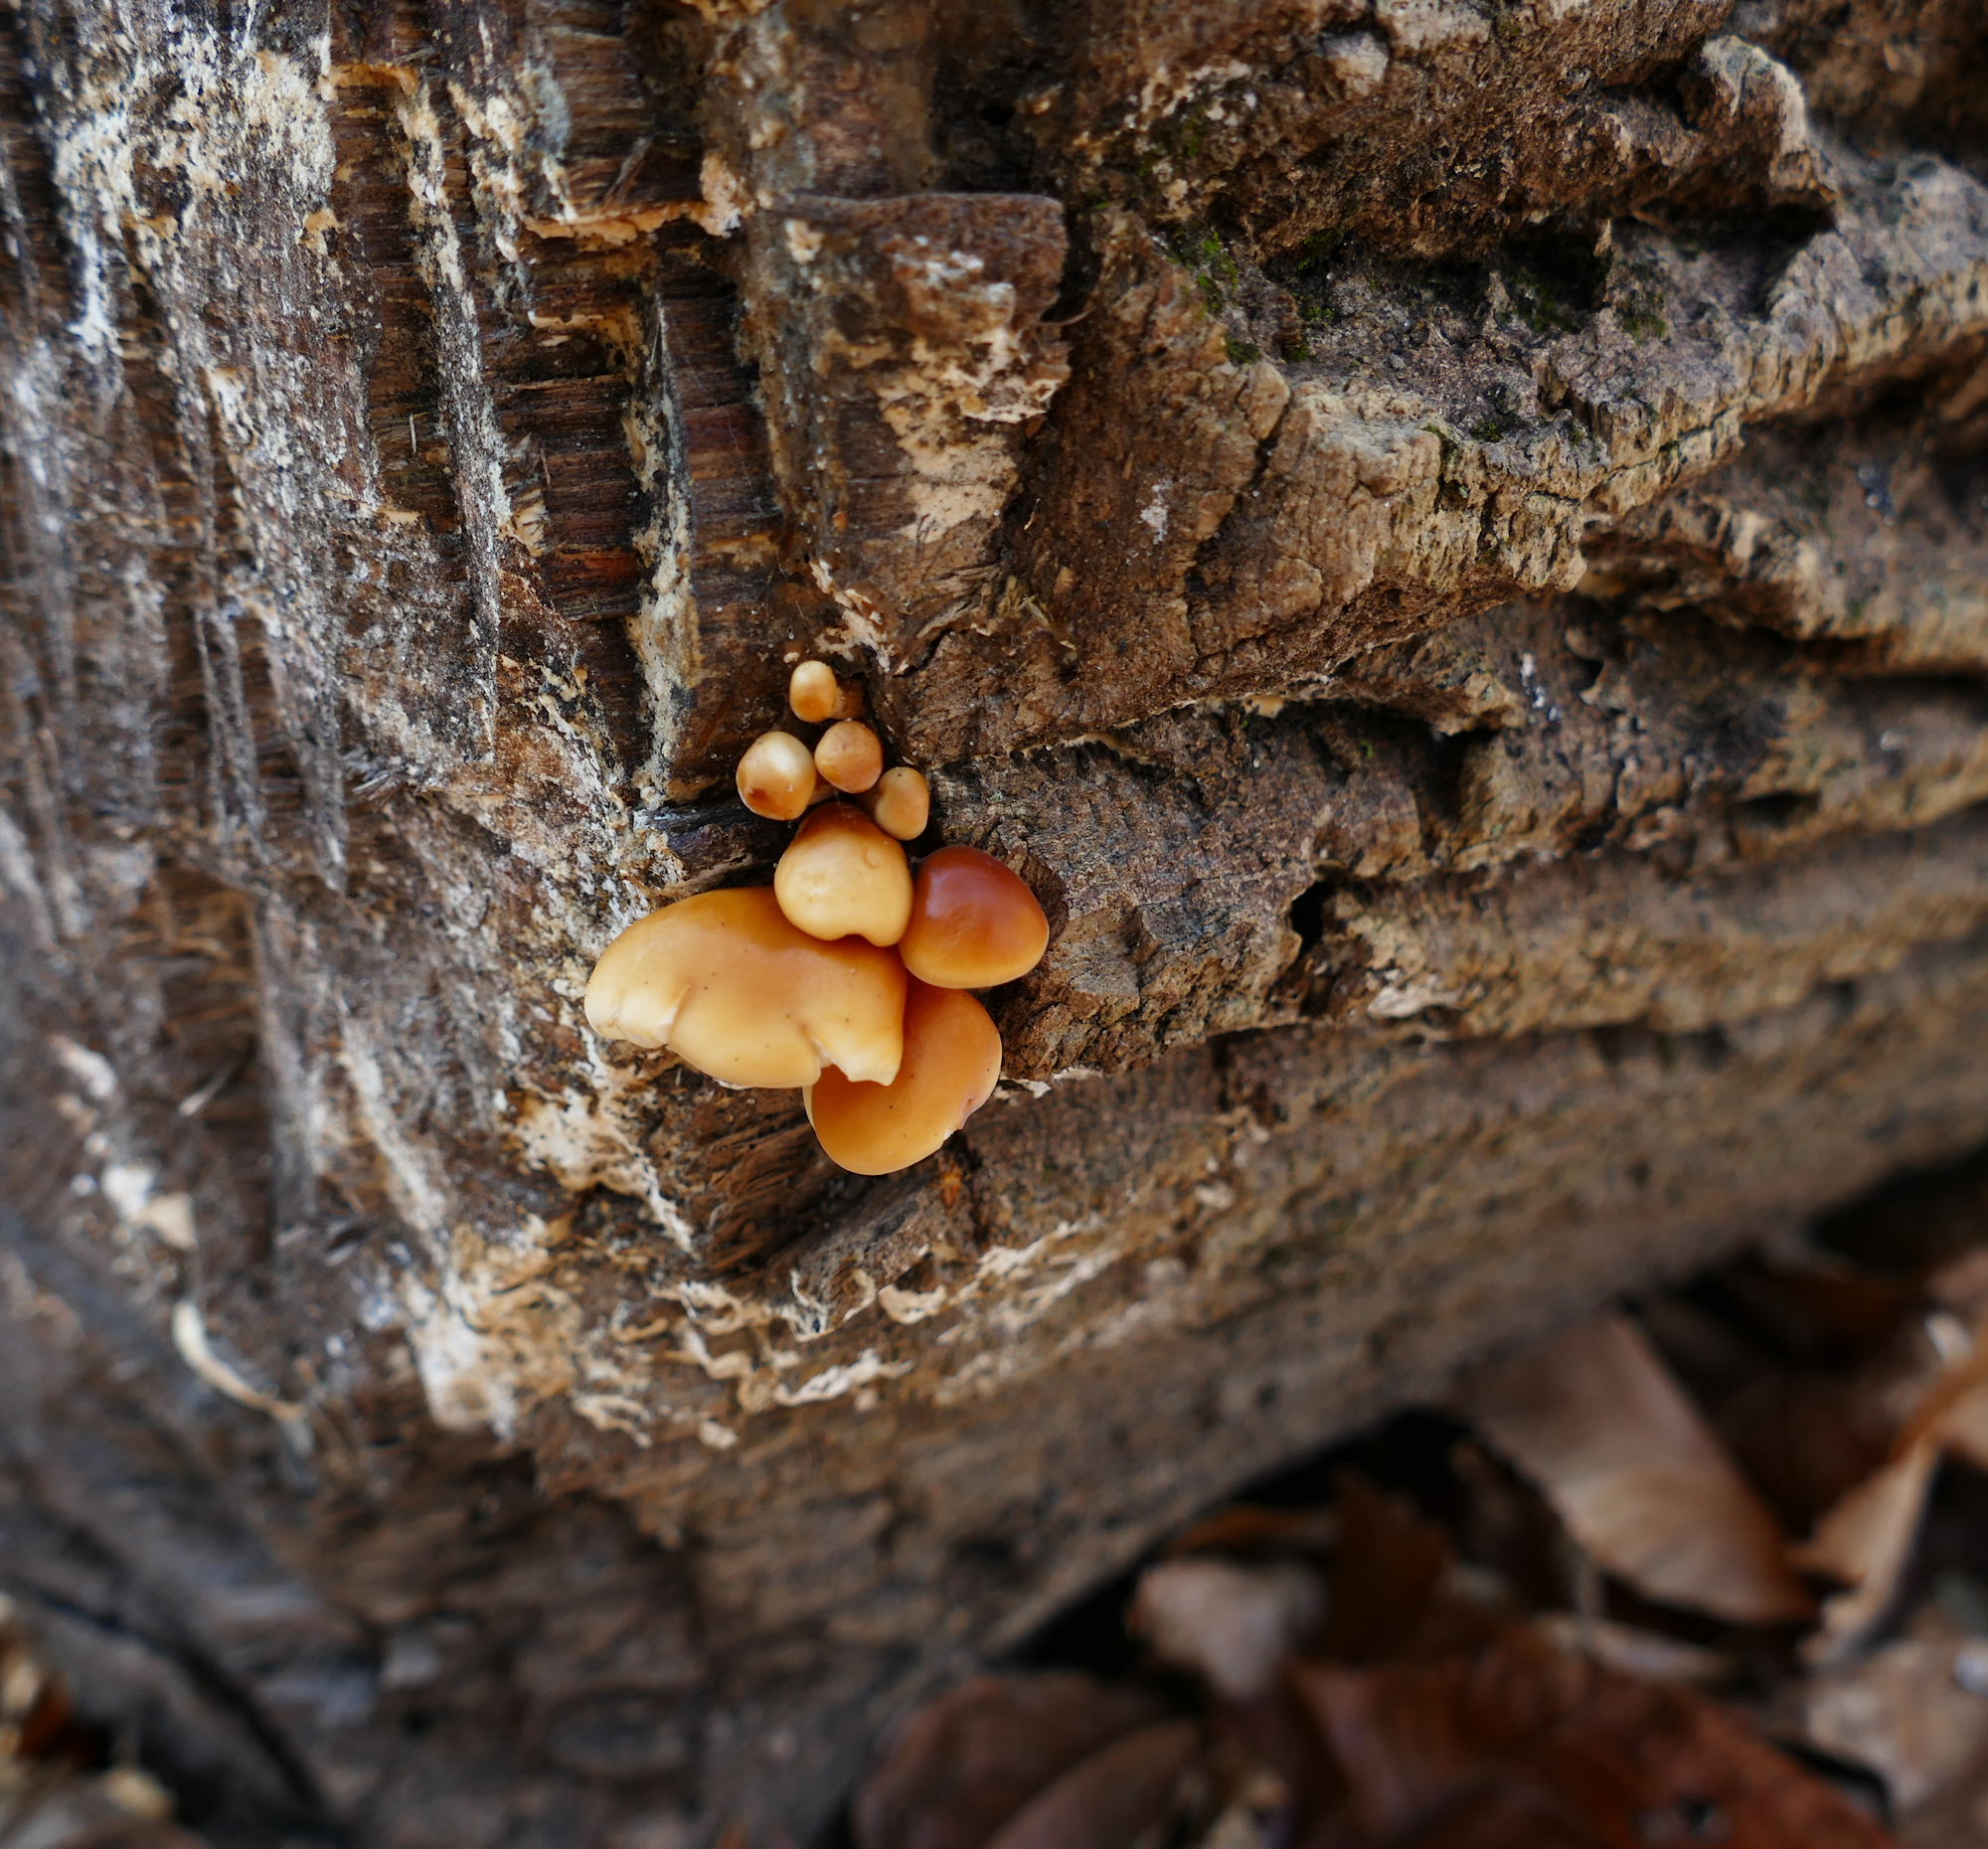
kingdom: Fungi
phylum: Basidiomycota
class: Agaricomycetes
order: Agaricales
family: Physalacriaceae
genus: Flammulina
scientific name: Flammulina velutipes
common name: Velvet shank
